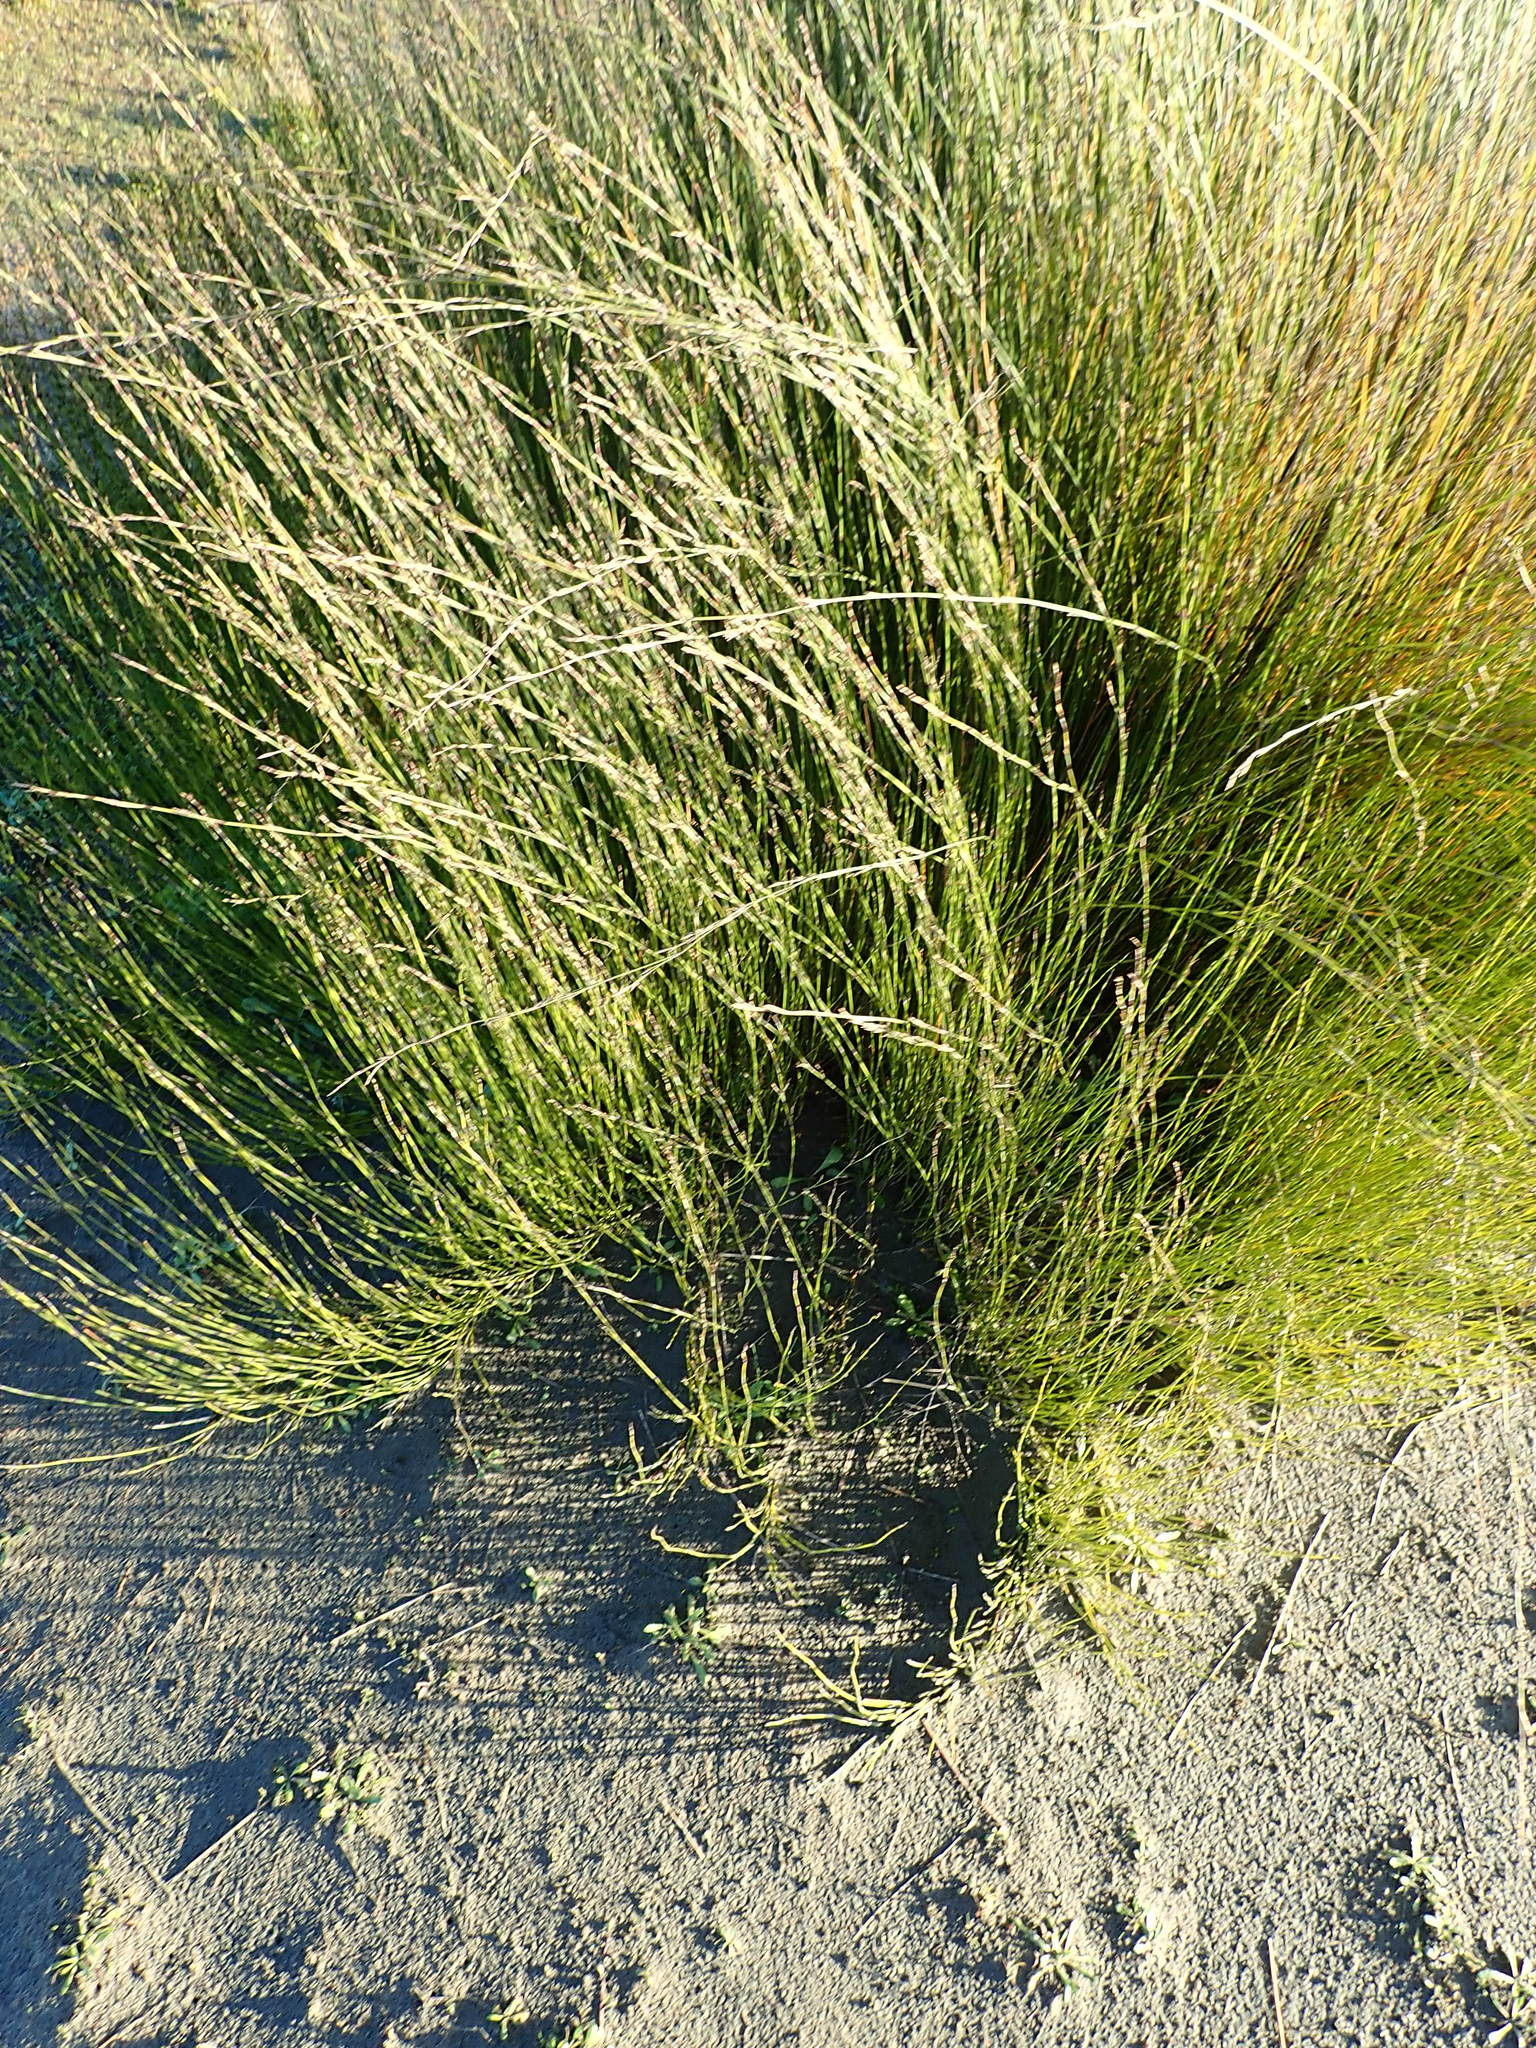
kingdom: Plantae
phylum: Tracheophyta
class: Liliopsida
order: Poales
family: Restionaceae
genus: Apodasmia
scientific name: Apodasmia similis
